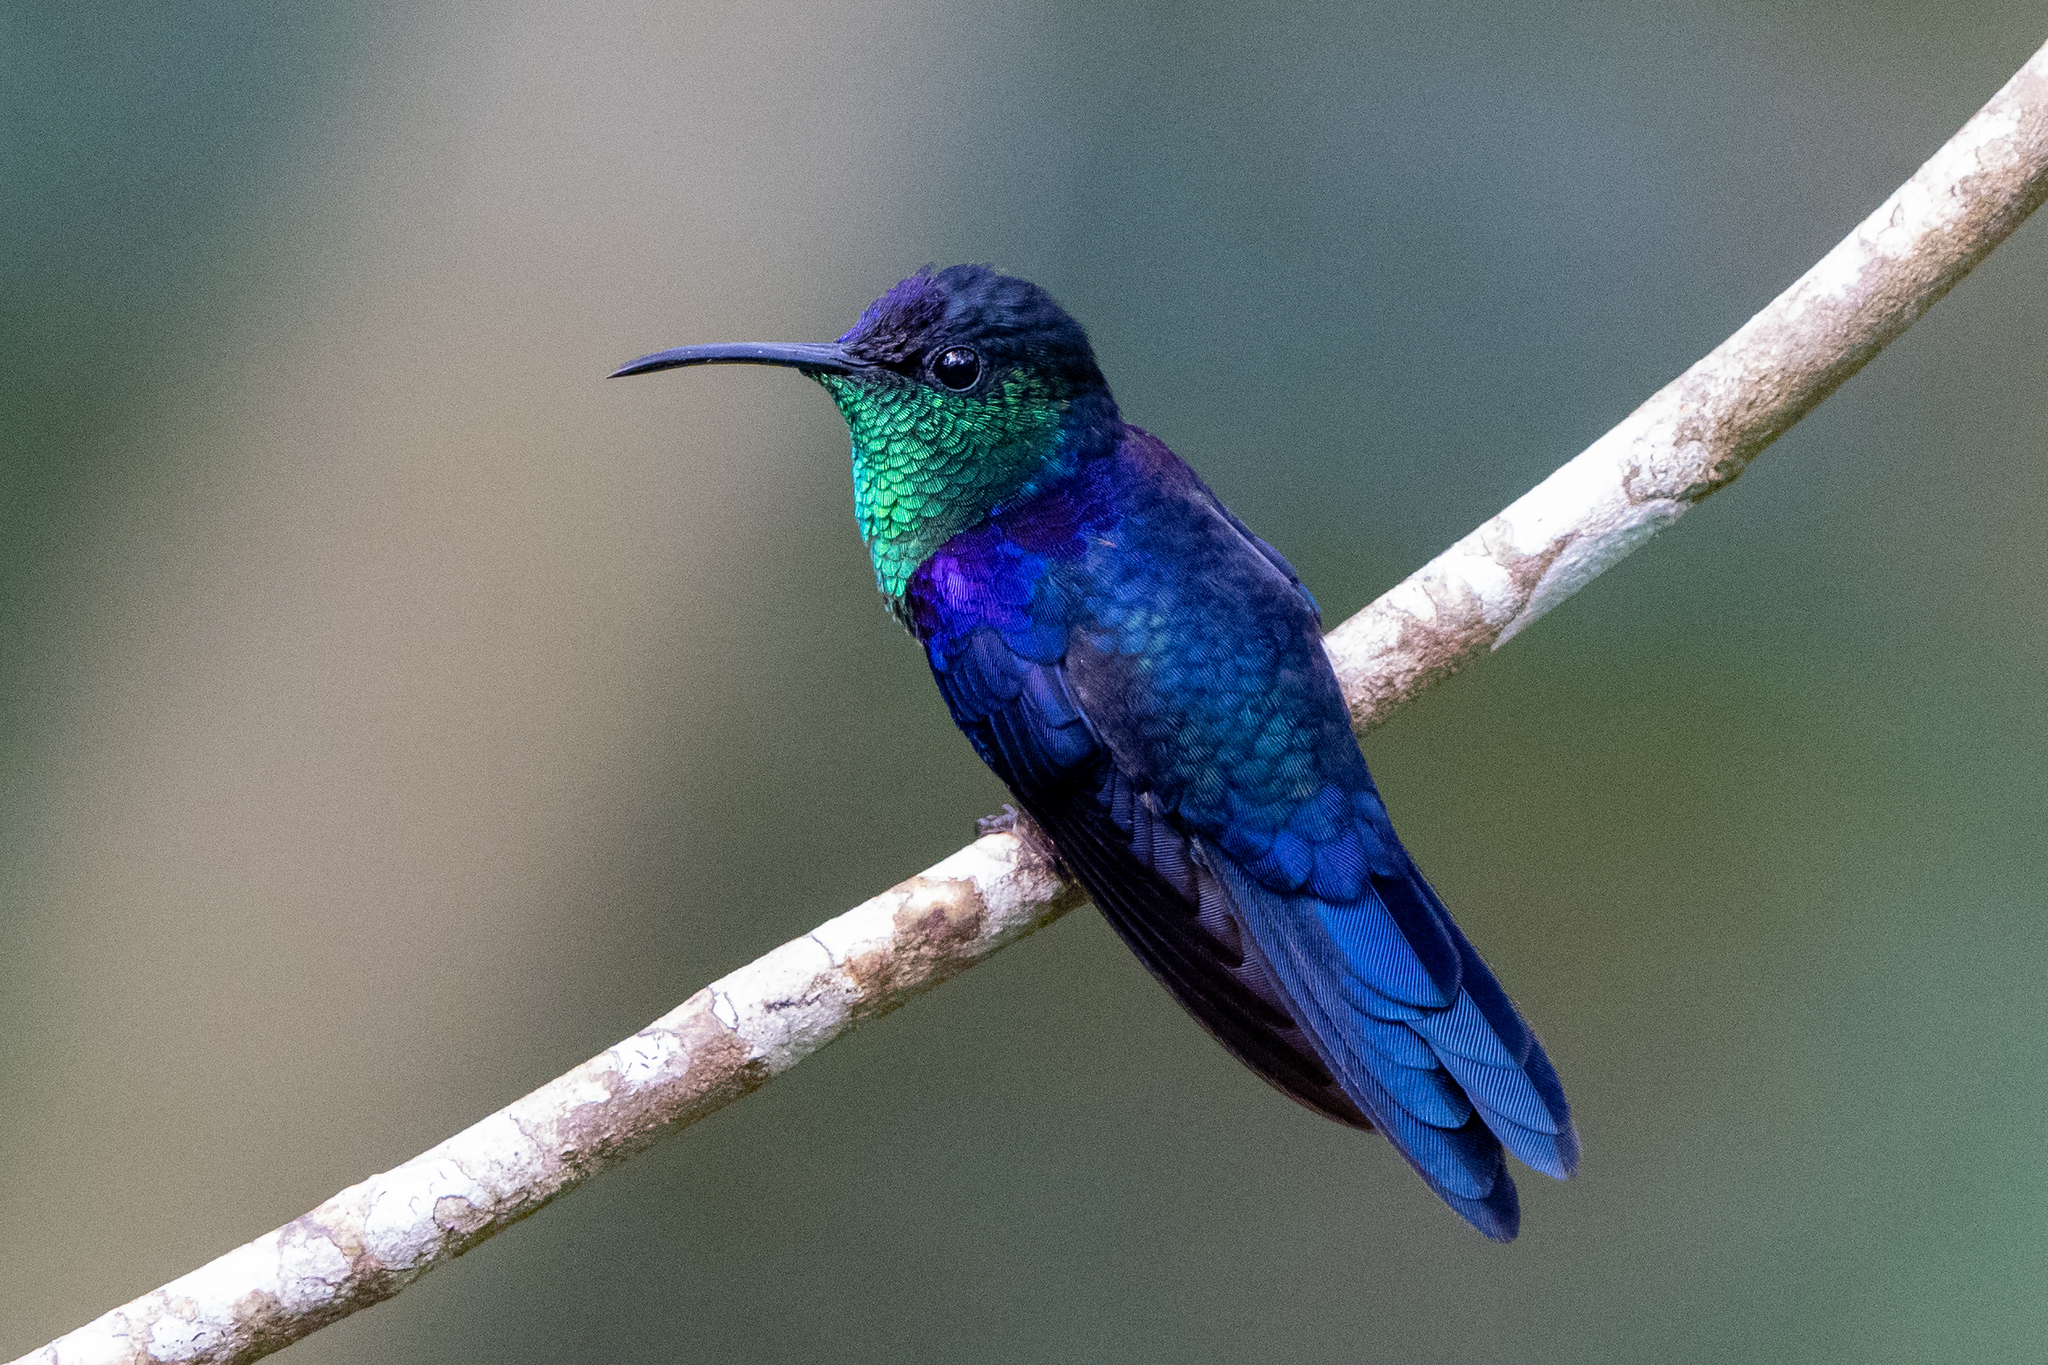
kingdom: Animalia
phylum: Chordata
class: Aves
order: Apodiformes
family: Trochilidae
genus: Thalurania
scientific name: Thalurania colombica
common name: Crowned woodnymph
